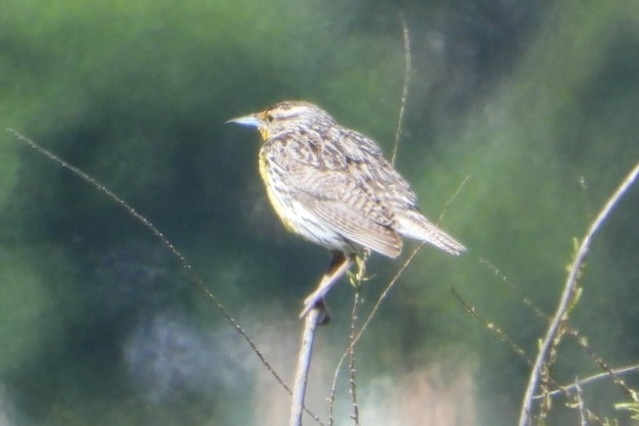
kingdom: Animalia
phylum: Chordata
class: Aves
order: Passeriformes
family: Icteridae
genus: Sturnella
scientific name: Sturnella neglecta
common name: Western meadowlark
